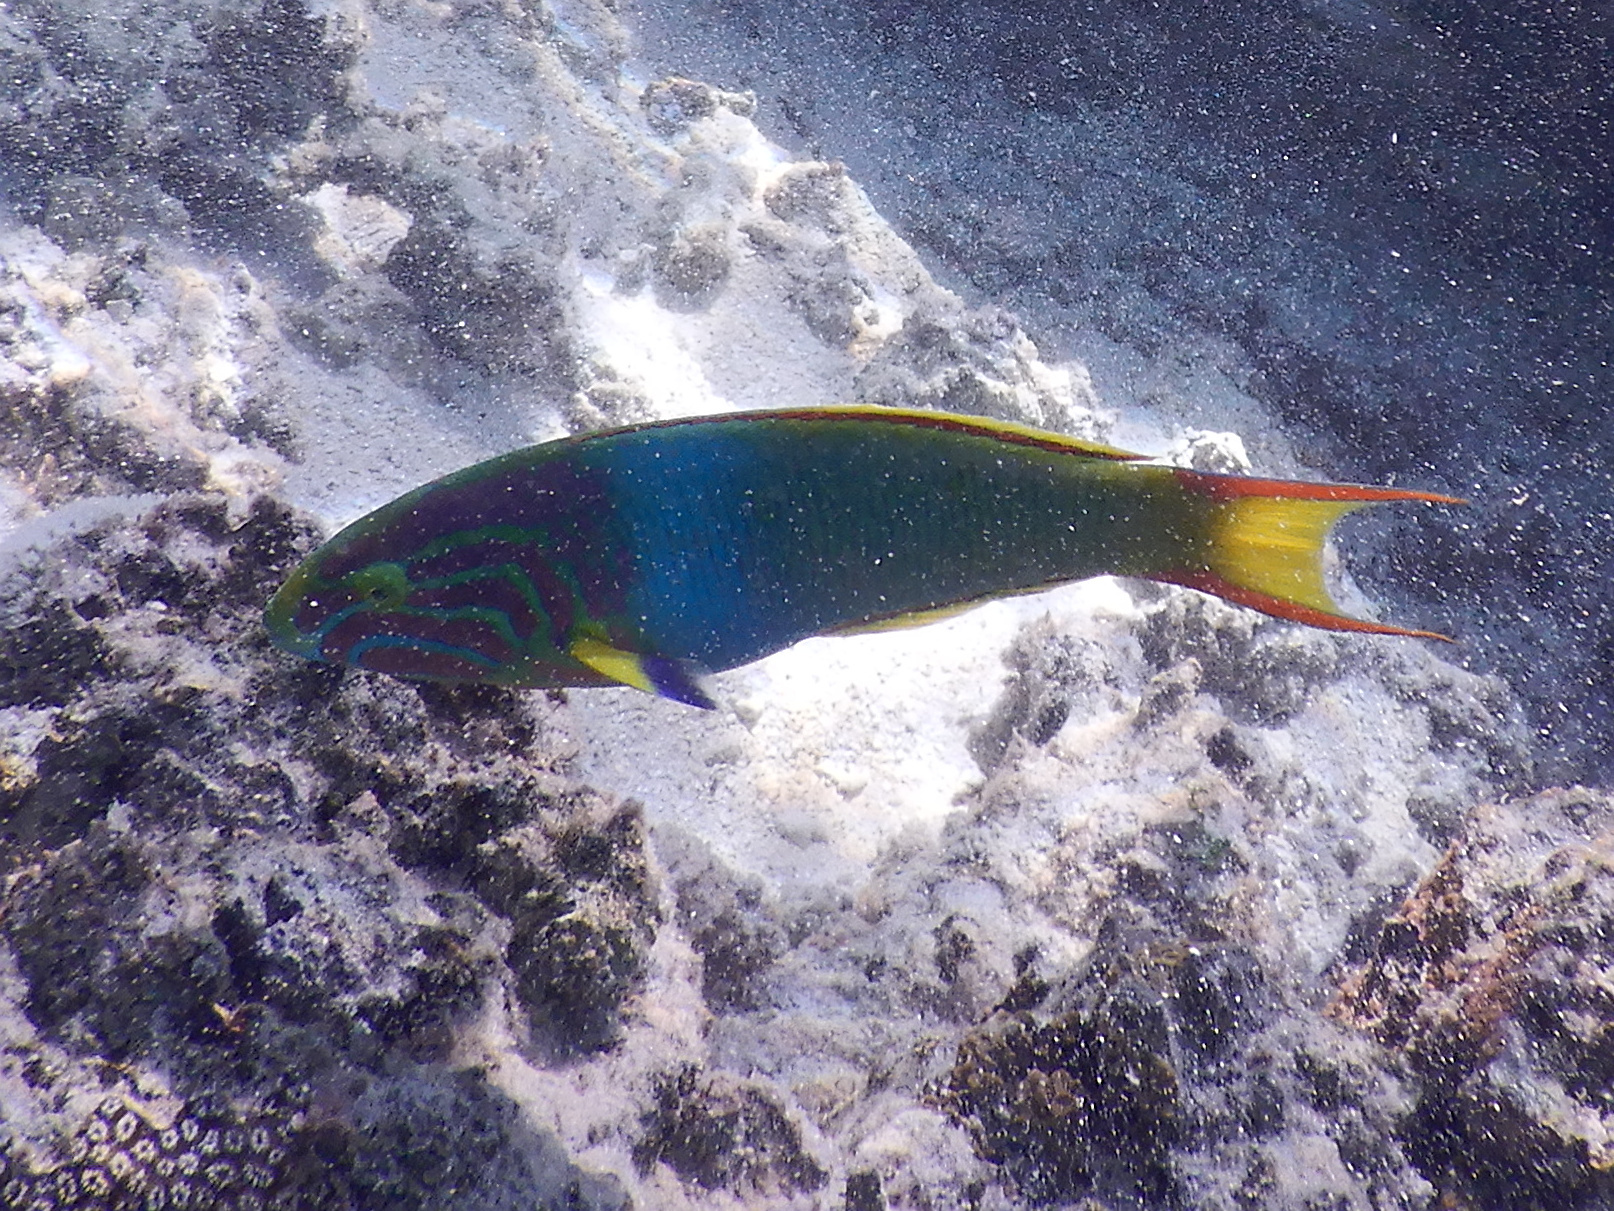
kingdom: Animalia
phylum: Chordata
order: Perciformes
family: Labridae
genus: Thalassoma
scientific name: Thalassoma lutescens
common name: Green moon wrasse
